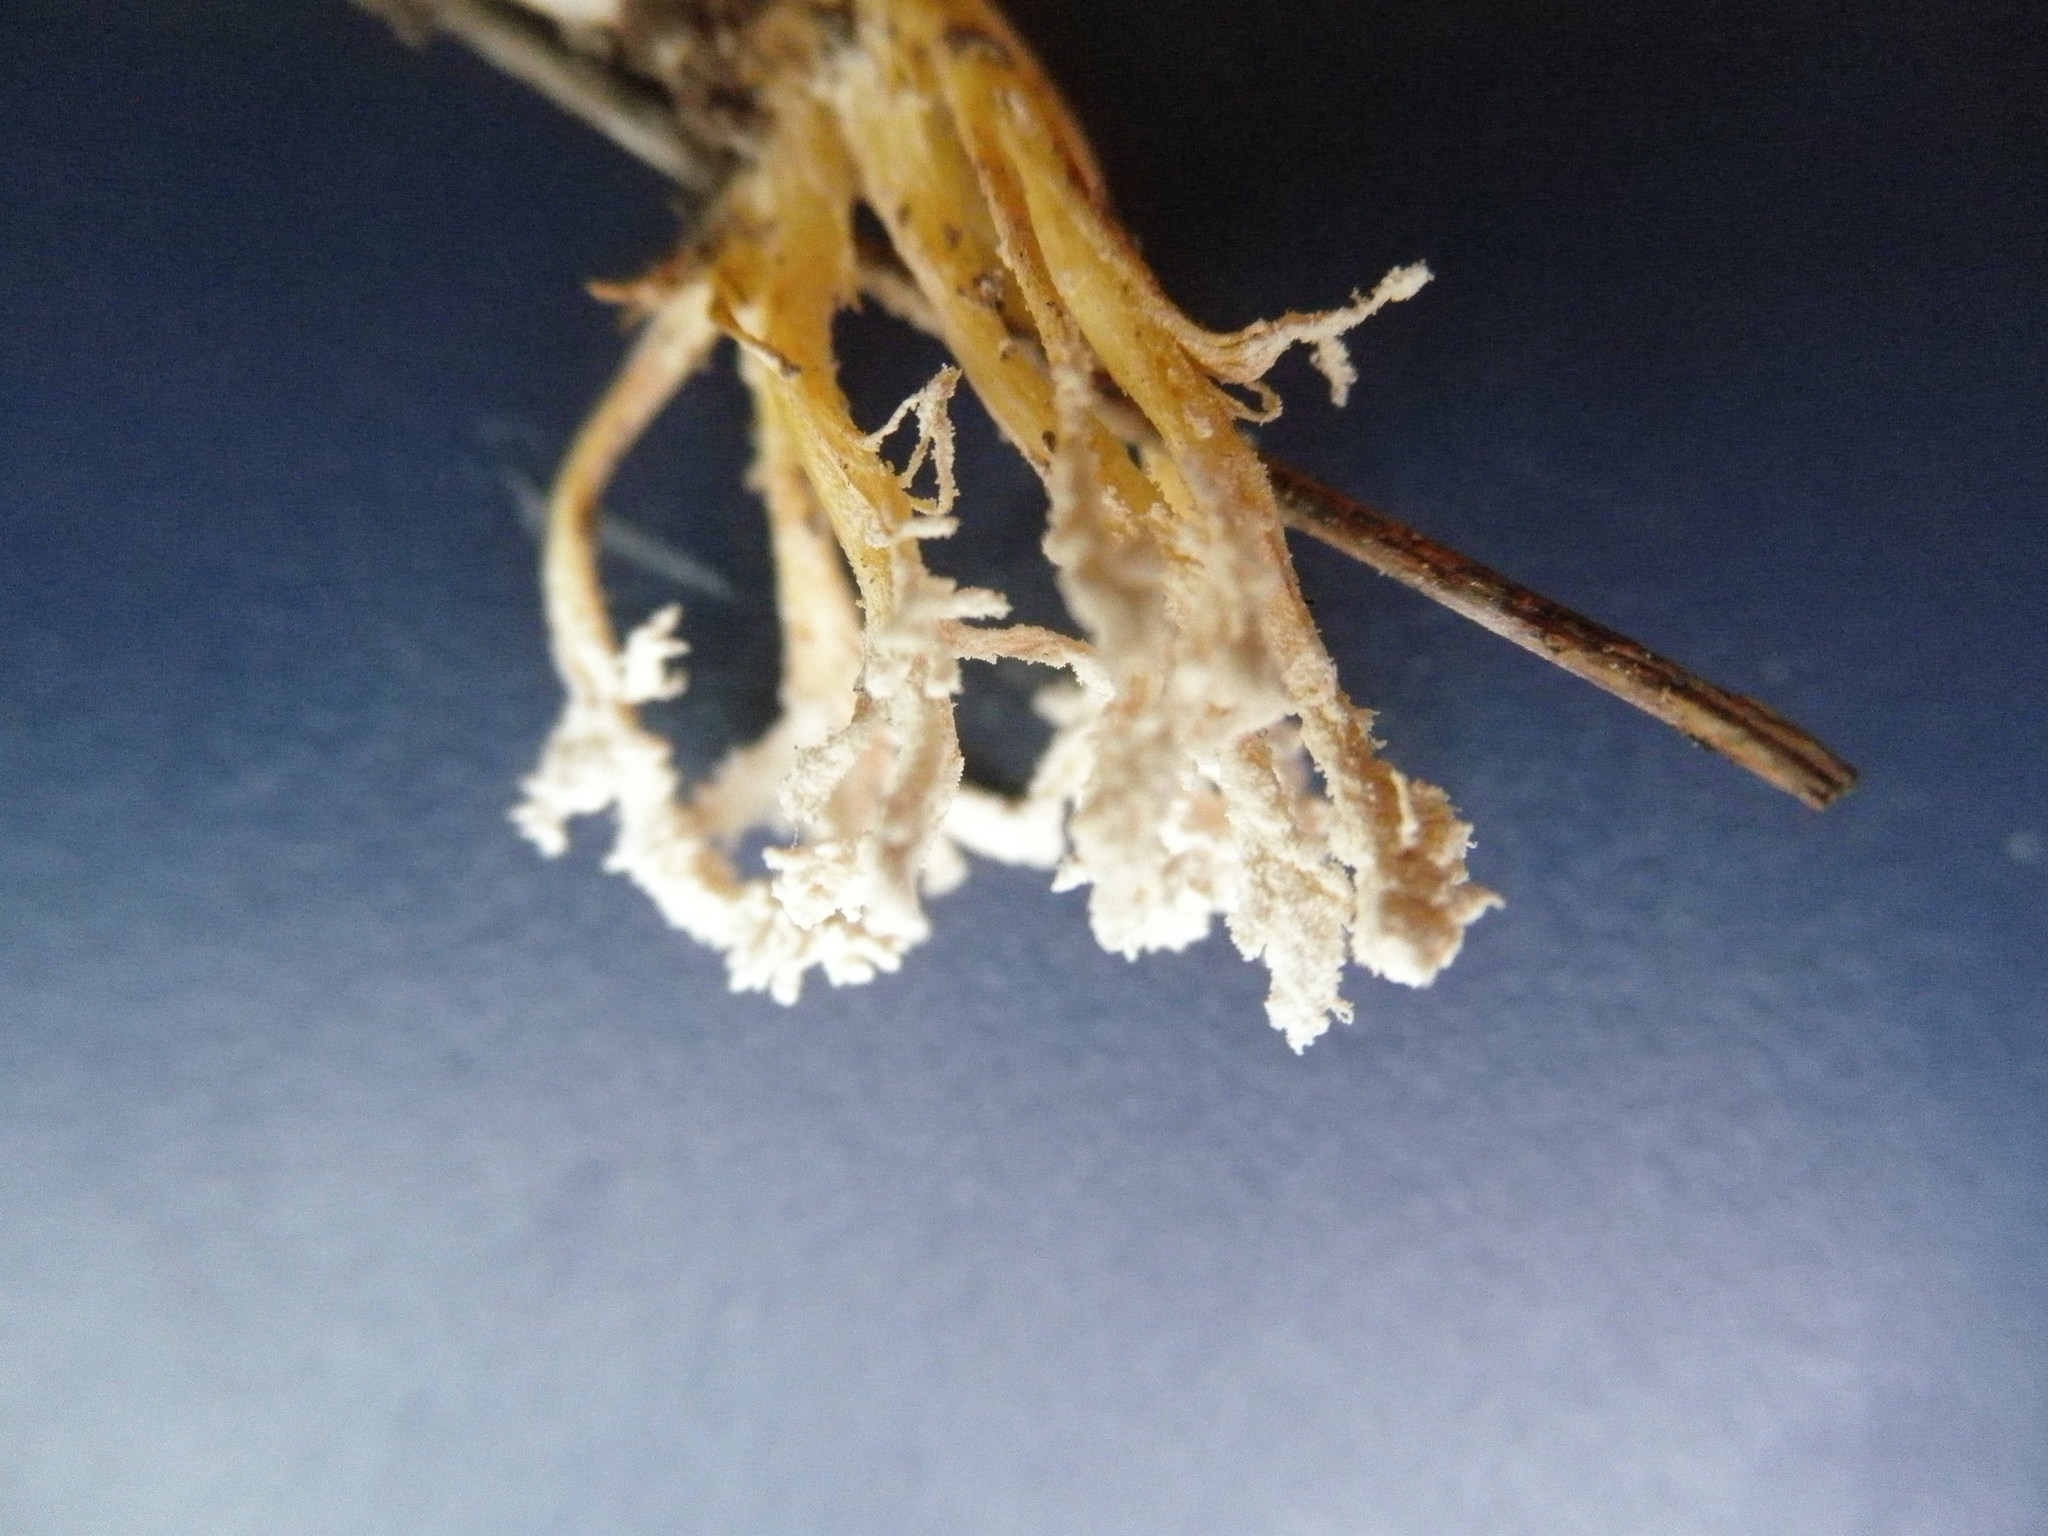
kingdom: Fungi
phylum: Ascomycota
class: Sordariomycetes
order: Hypocreales
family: Cordycipitaceae
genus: Cordyceps
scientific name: Cordyceps tenuipes
